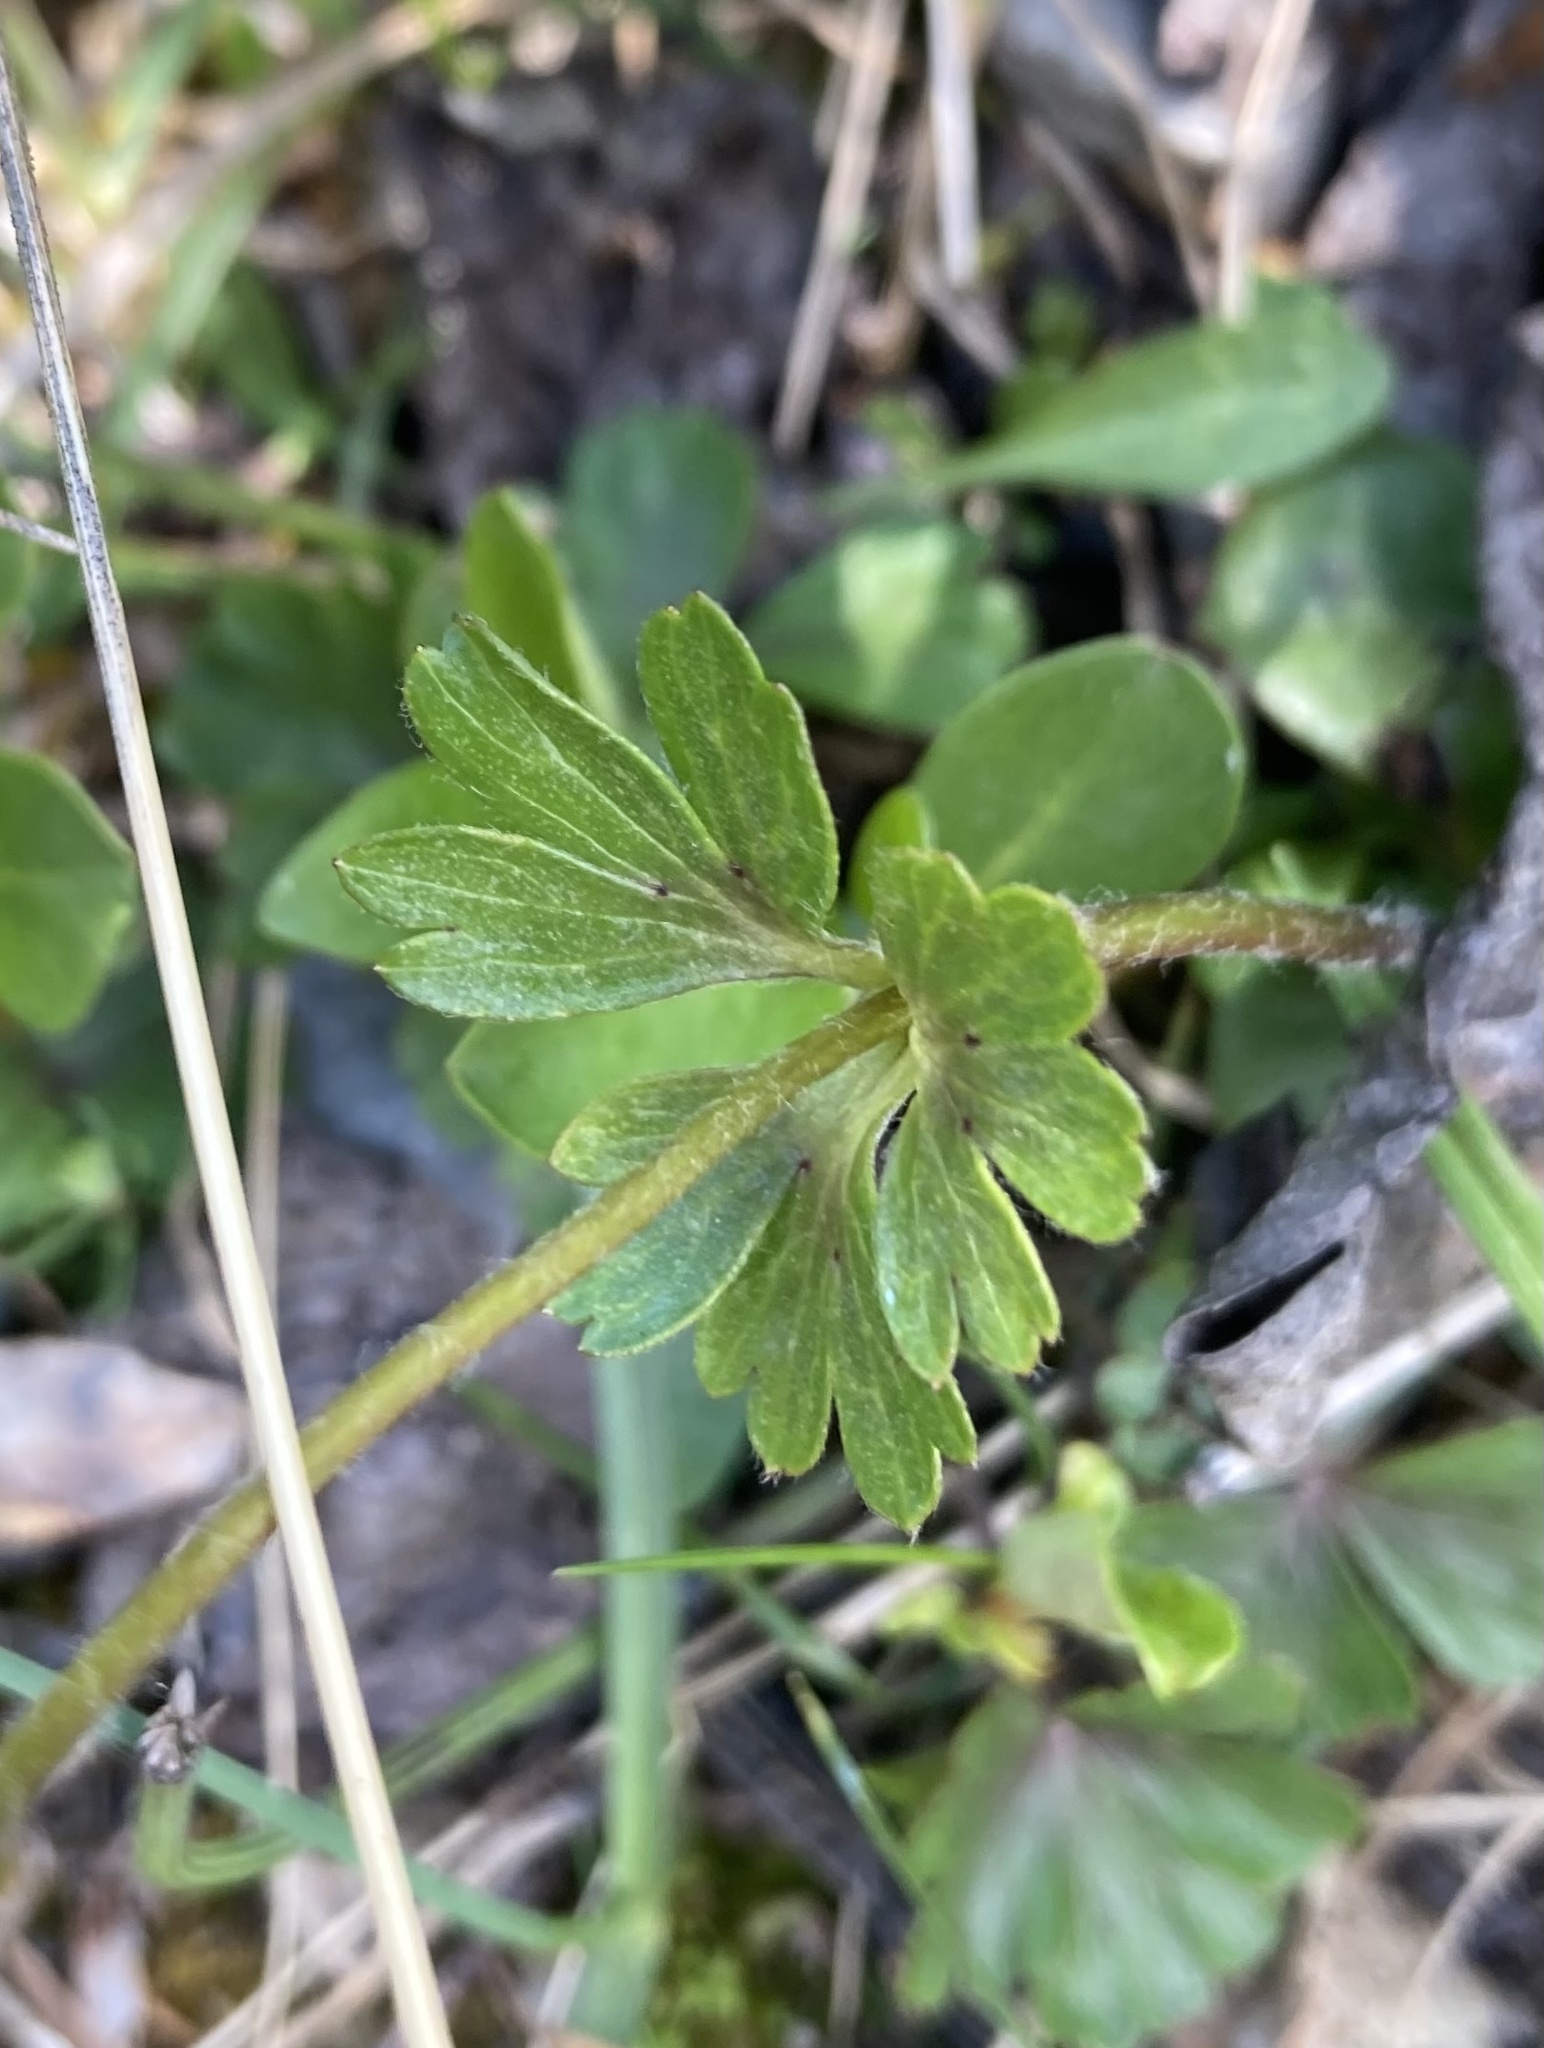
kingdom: Plantae
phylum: Tracheophyta
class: Magnoliopsida
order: Ranunculales
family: Ranunculaceae
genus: Anemone
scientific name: Anemone parviflora
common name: Northern anemone
